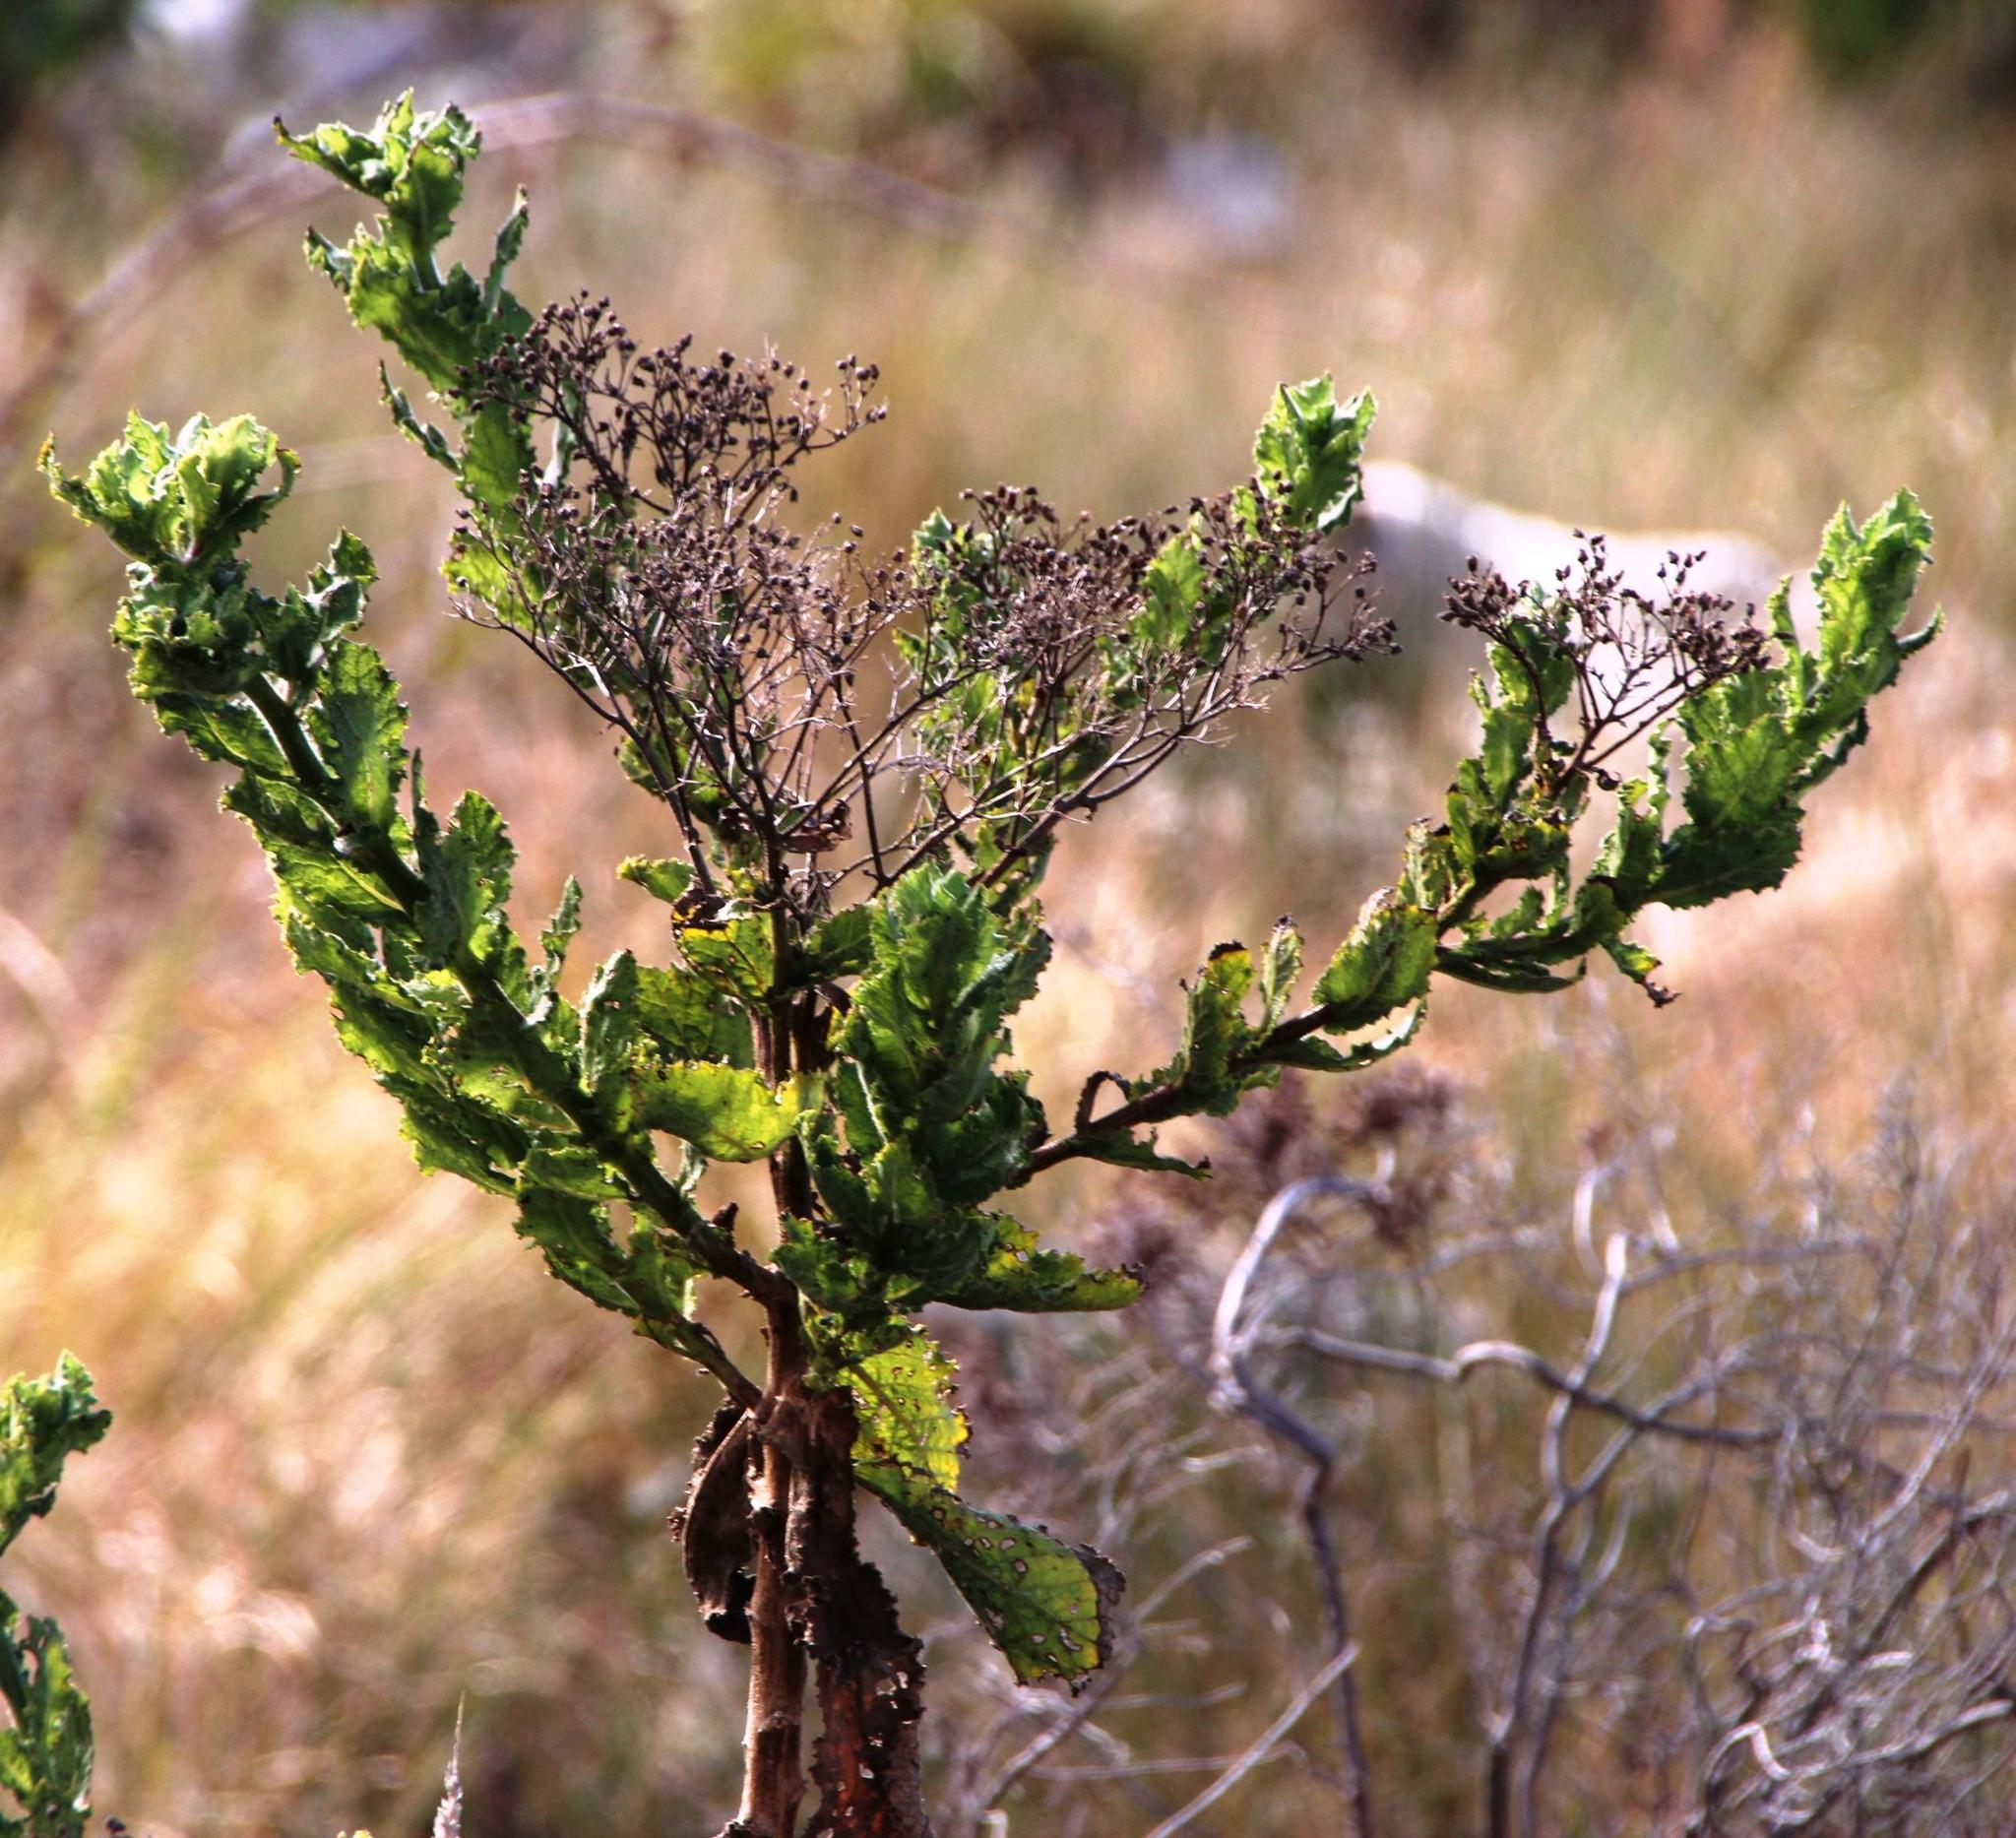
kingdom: Plantae
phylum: Tracheophyta
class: Magnoliopsida
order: Asterales
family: Asteraceae
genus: Senecio
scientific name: Senecio rigidus
